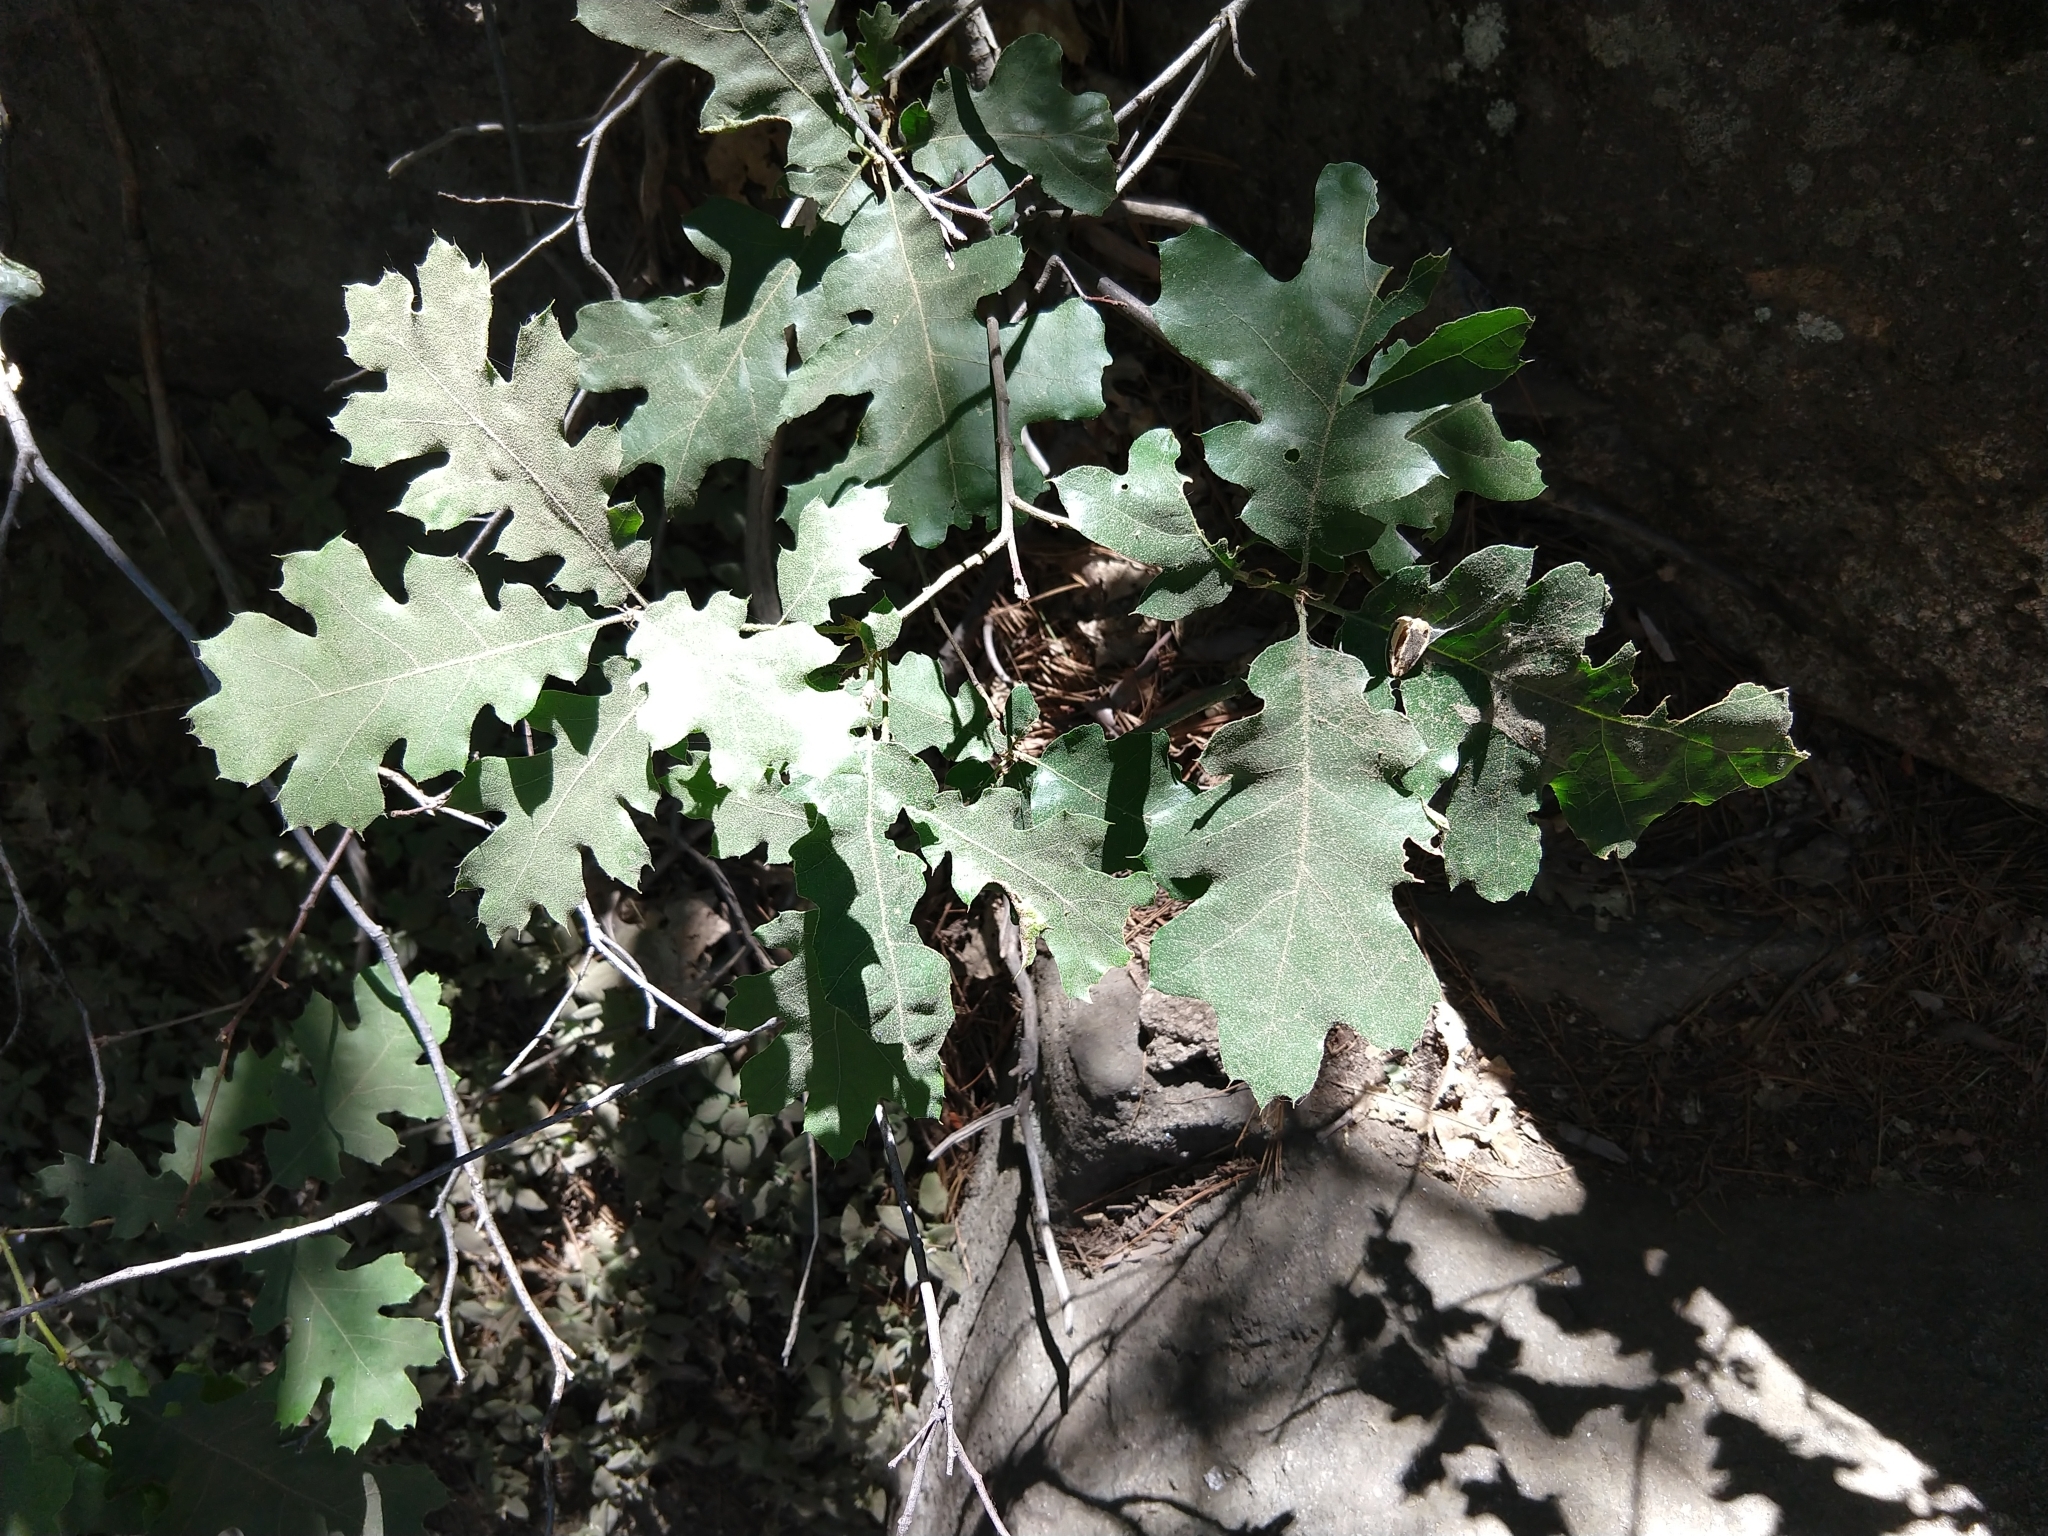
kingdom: Plantae
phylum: Tracheophyta
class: Magnoliopsida
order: Fagales
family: Fagaceae
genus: Quercus
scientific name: Quercus kelloggii
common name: California black oak
